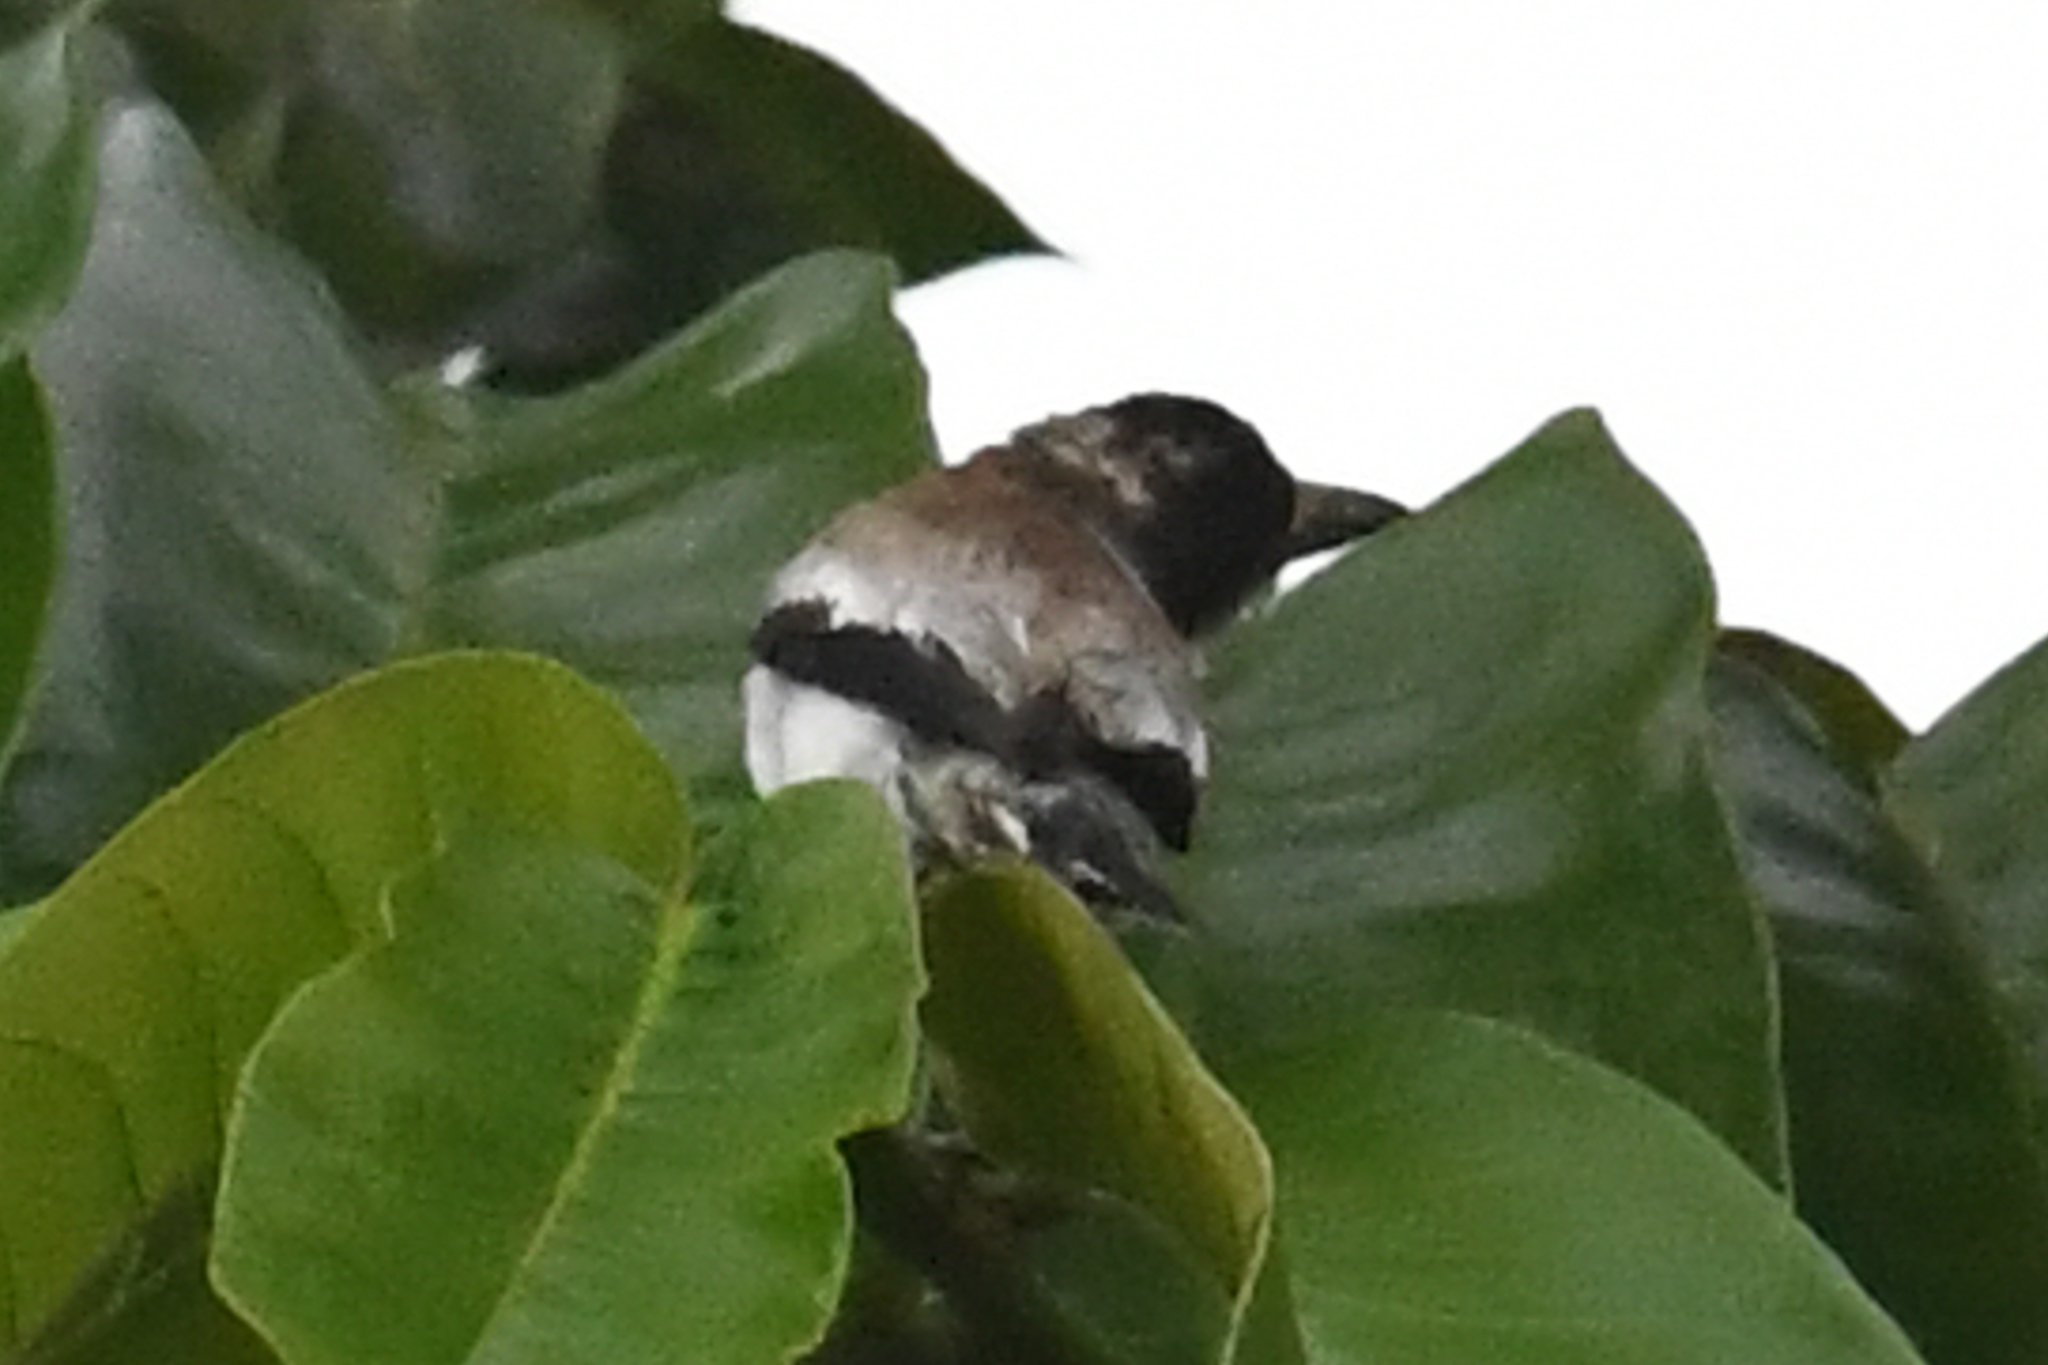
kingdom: Animalia
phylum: Chordata
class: Aves
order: Passeriformes
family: Cotingidae
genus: Tityra
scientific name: Tityra inquisitor
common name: Black-crowned tityra
